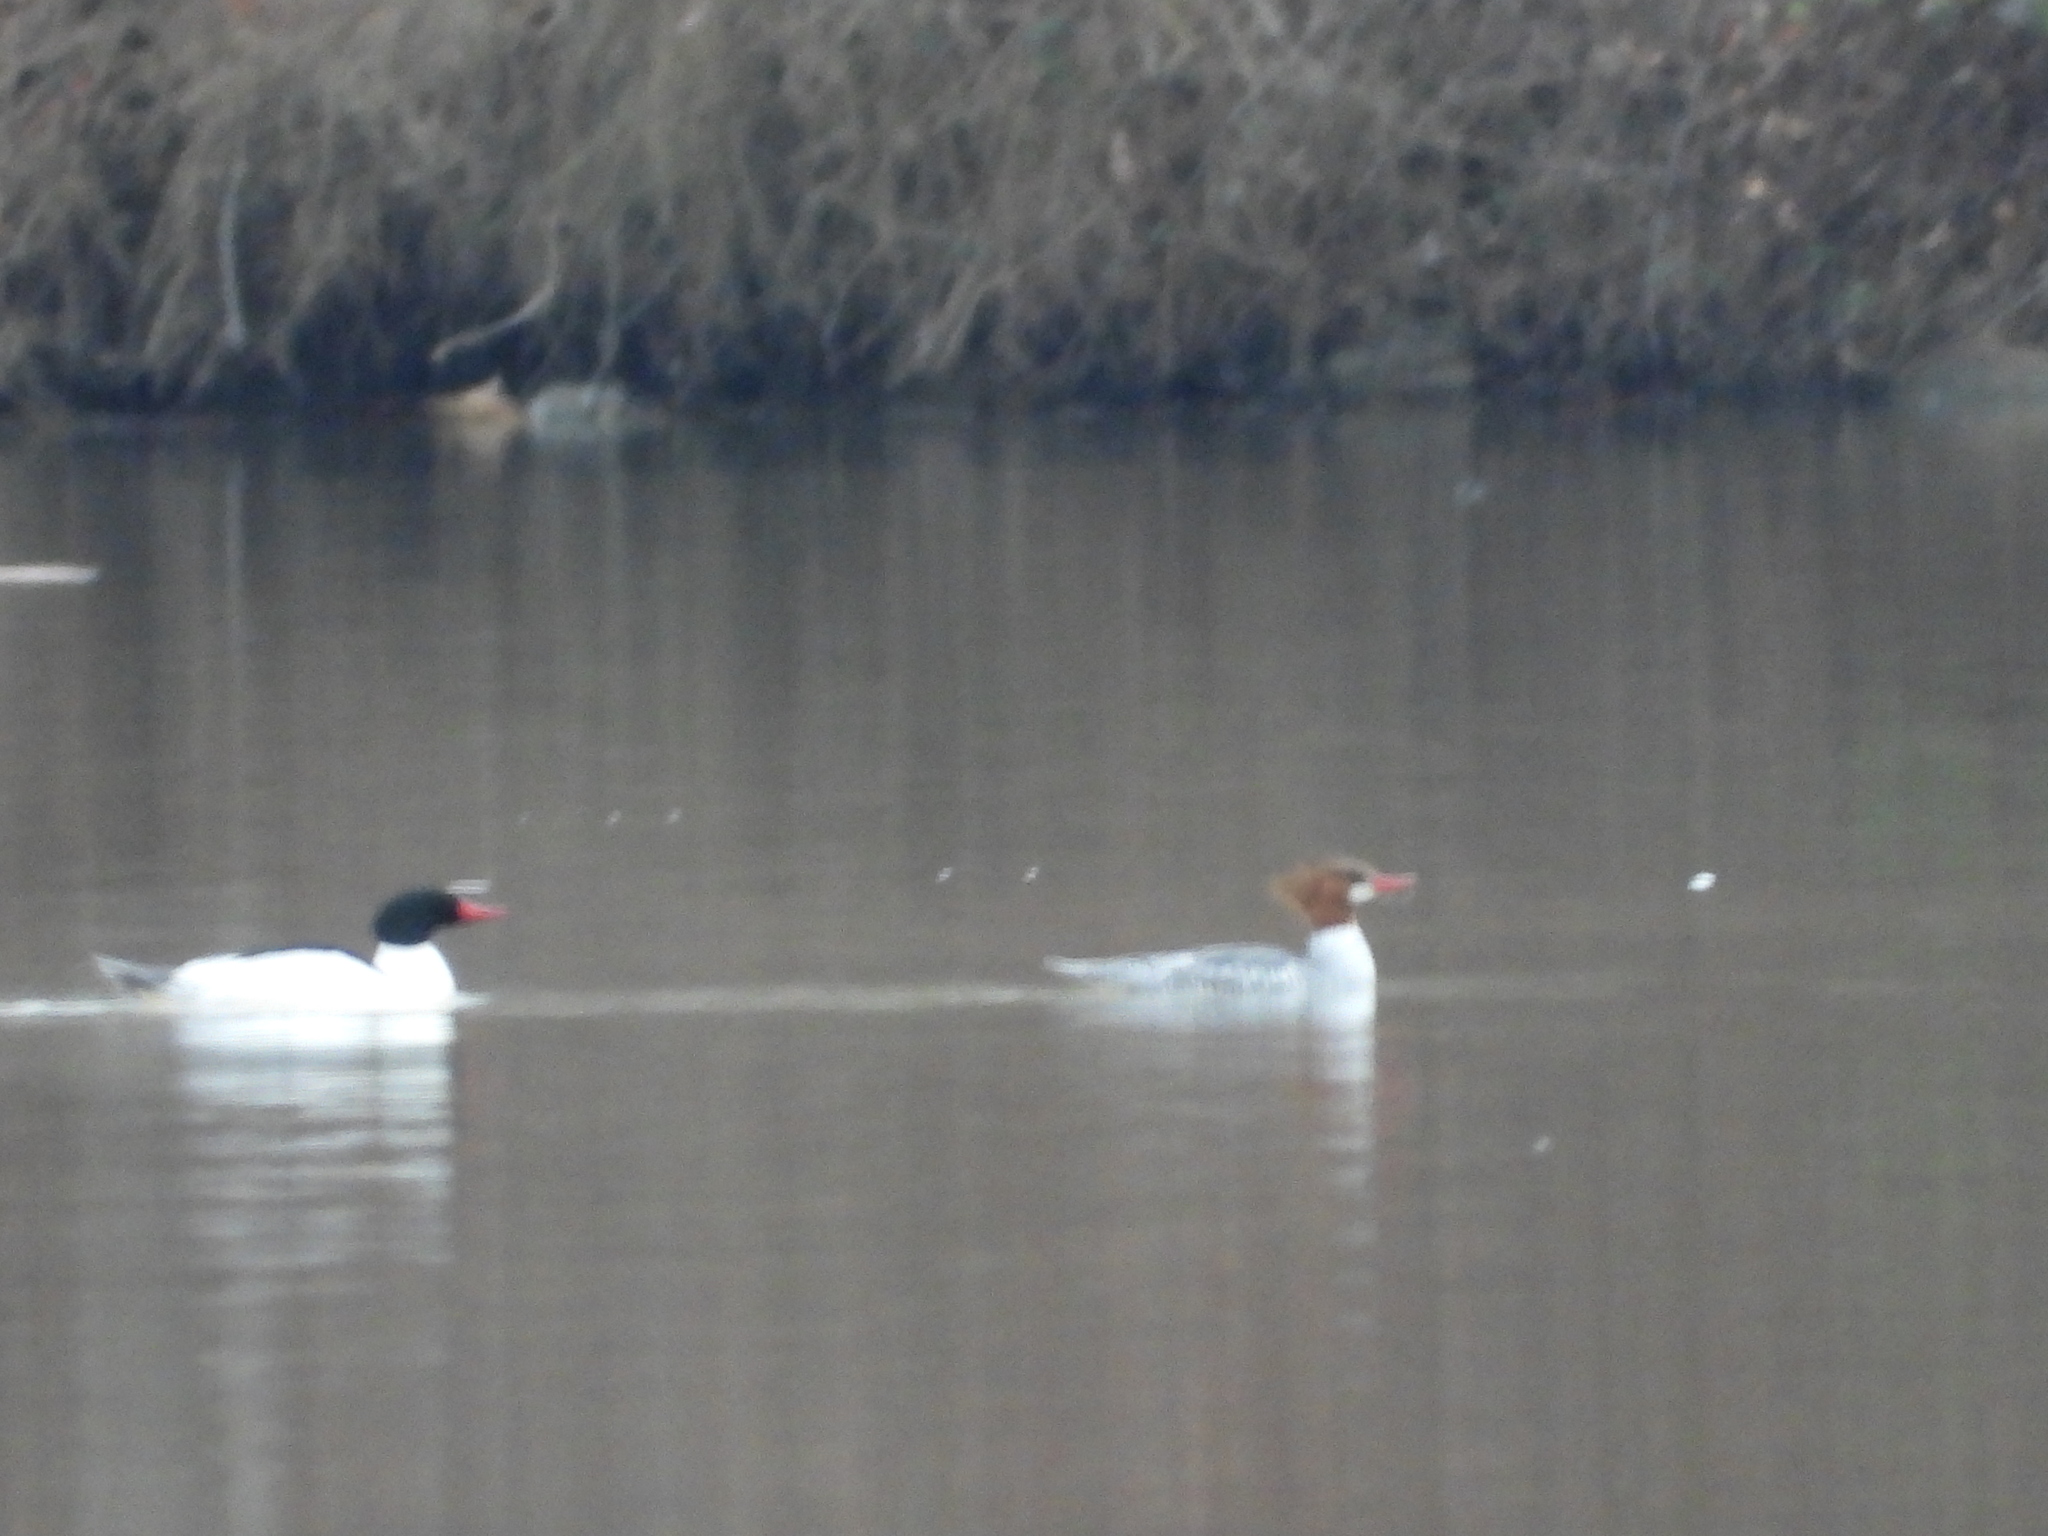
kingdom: Animalia
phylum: Chordata
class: Aves
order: Anseriformes
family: Anatidae
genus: Mergus
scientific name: Mergus merganser
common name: Common merganser
